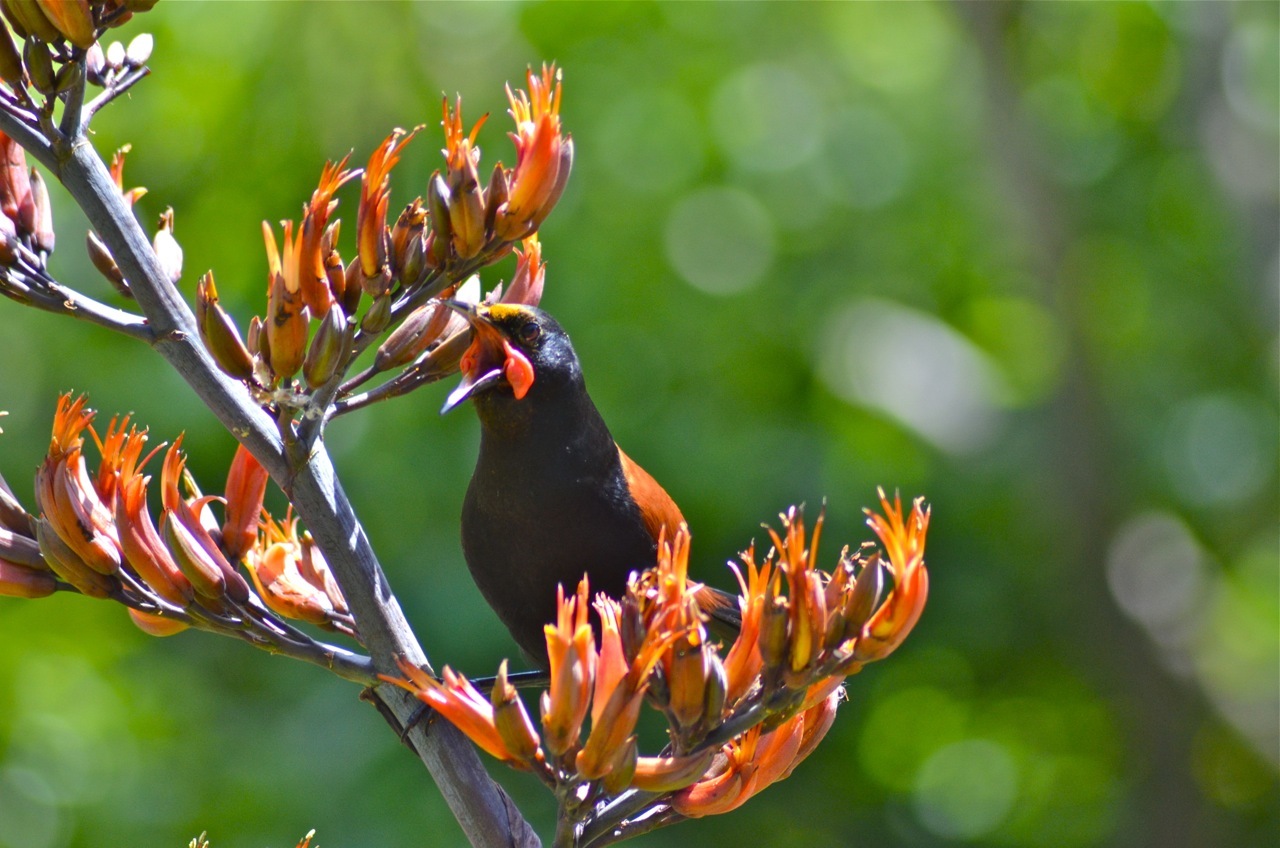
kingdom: Animalia
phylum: Chordata
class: Aves
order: Passeriformes
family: Callaeatidae
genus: Philesturnus
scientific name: Philesturnus carunculatus
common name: South island saddleback
